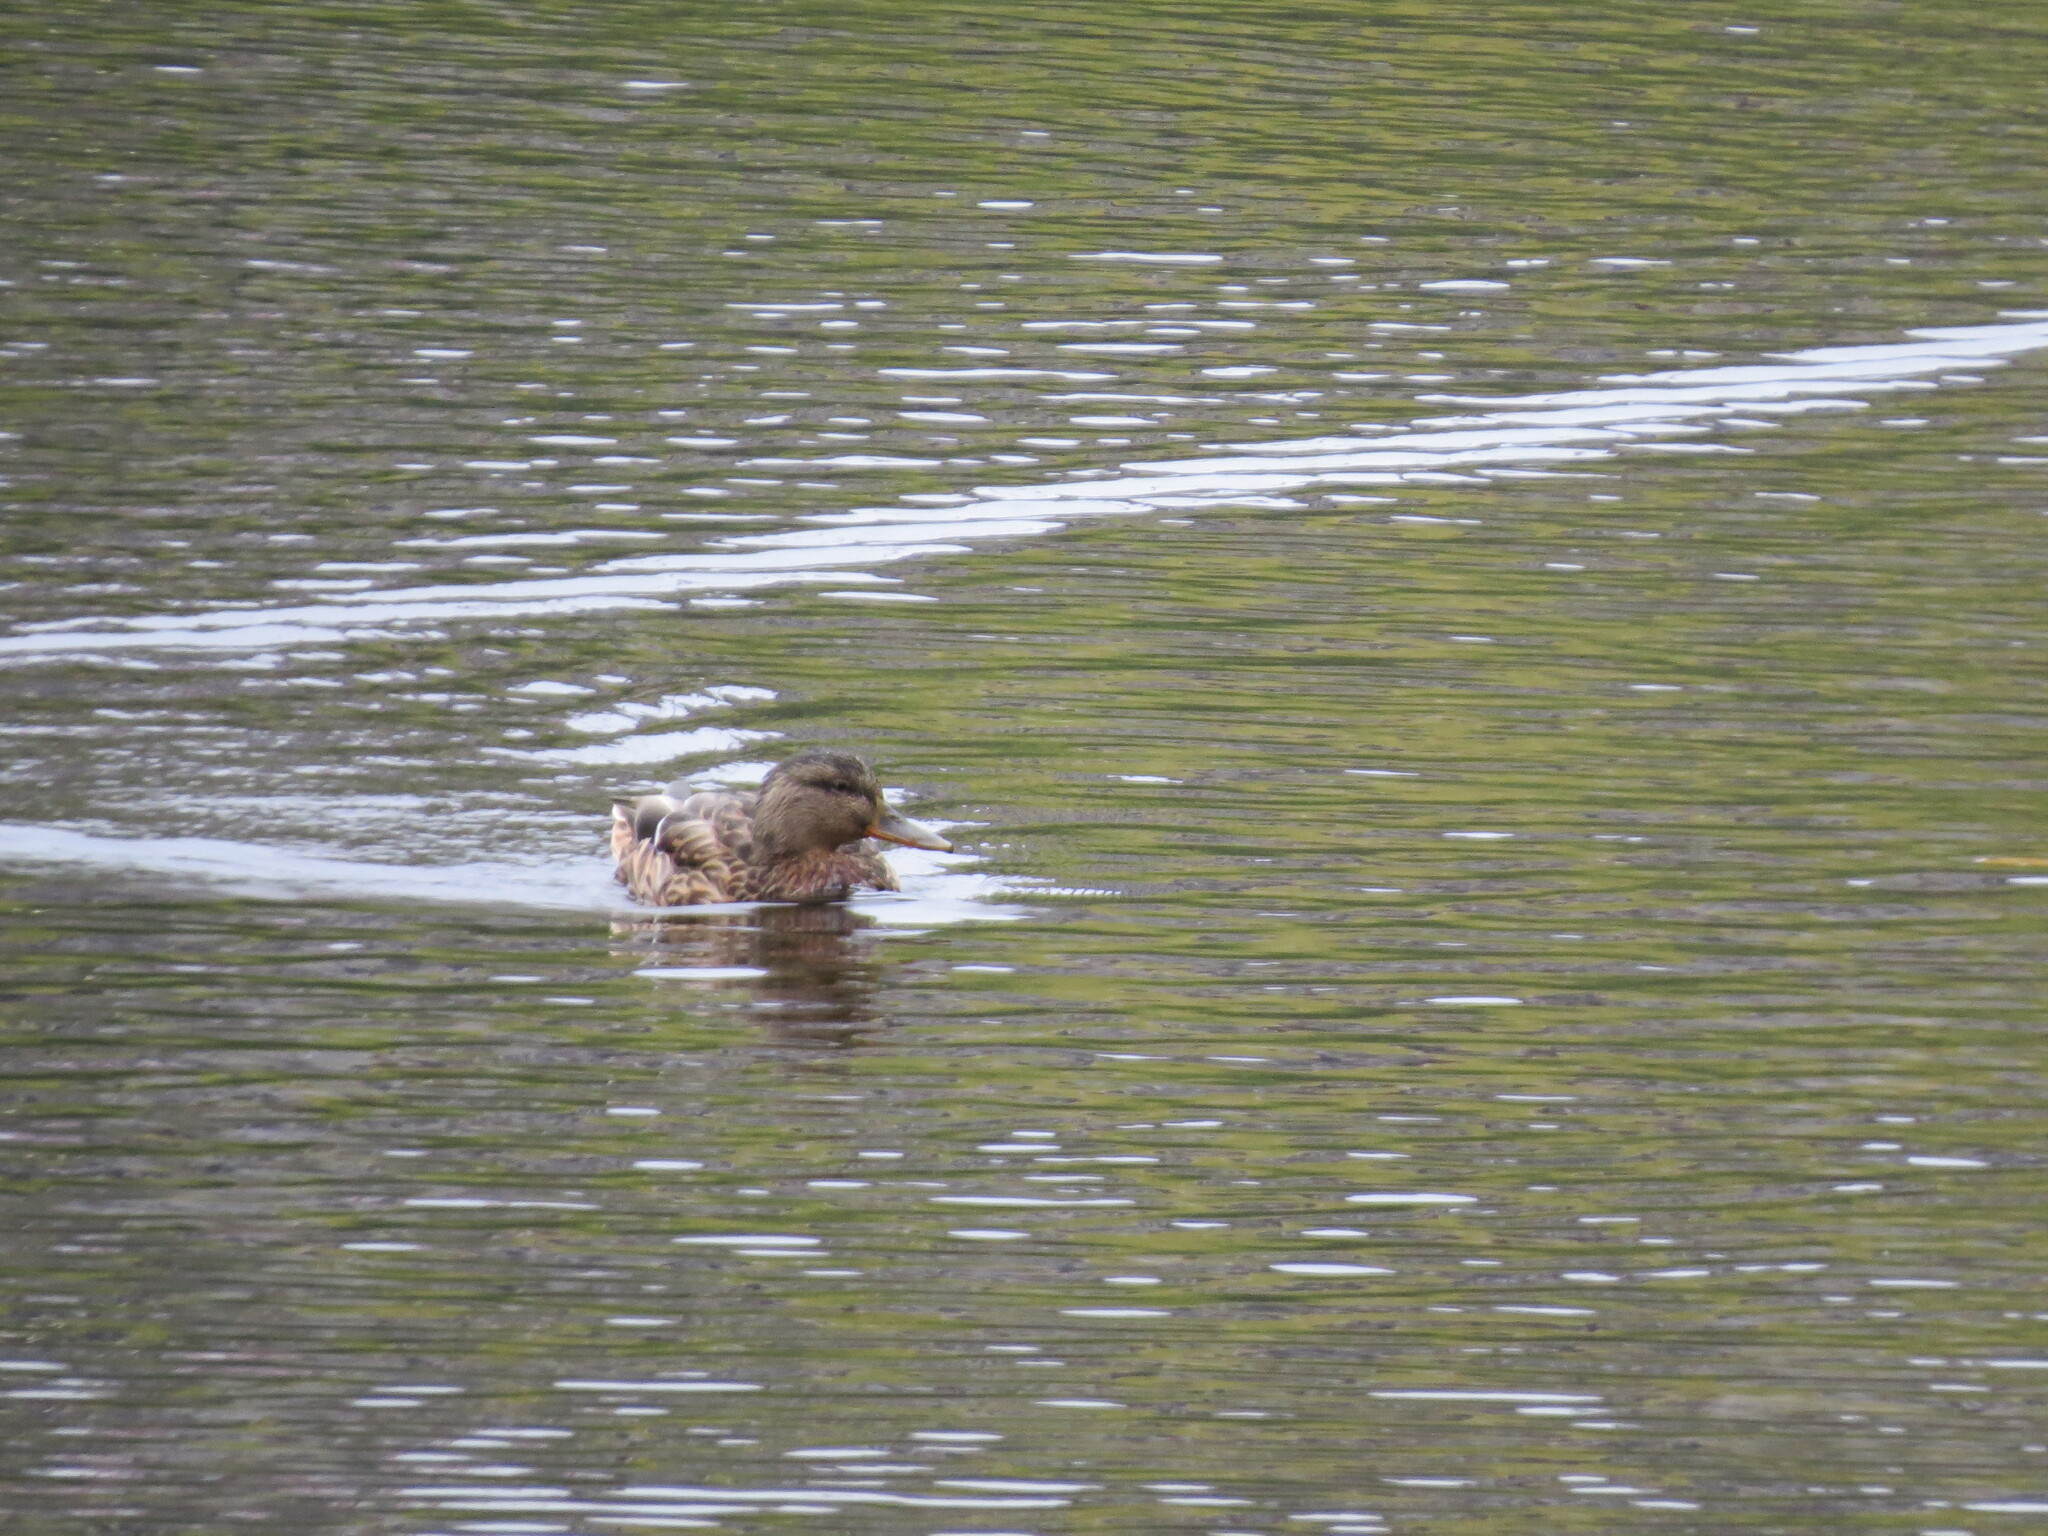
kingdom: Animalia
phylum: Chordata
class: Aves
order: Anseriformes
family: Anatidae
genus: Anas
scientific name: Anas platyrhynchos
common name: Mallard
